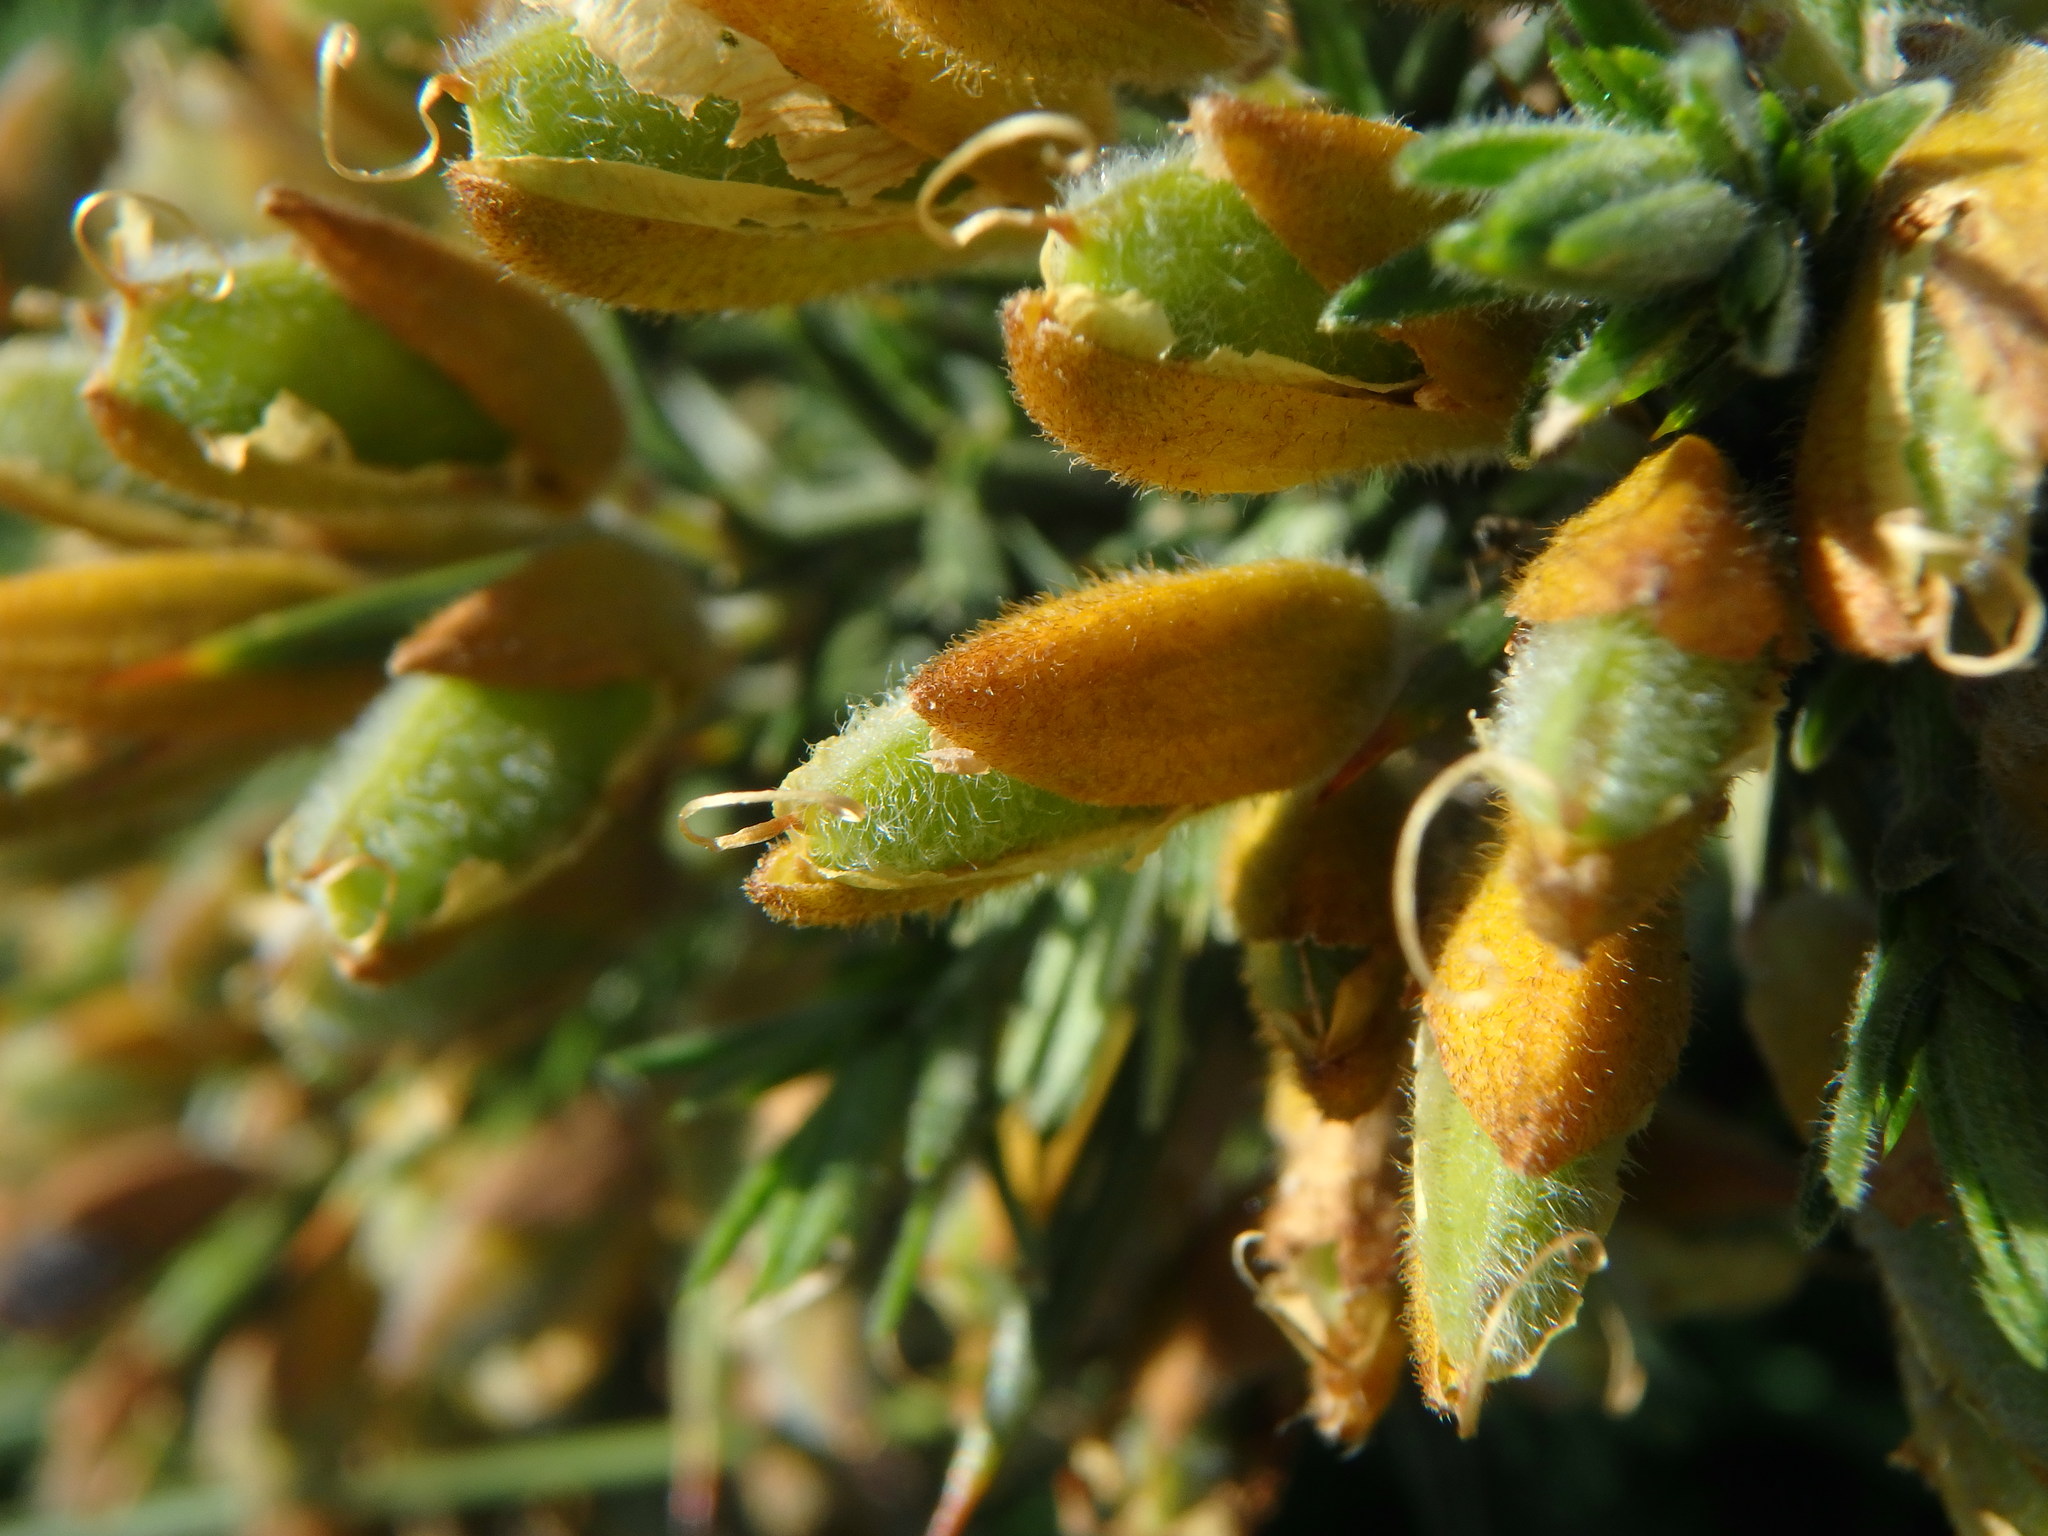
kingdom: Plantae
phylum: Tracheophyta
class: Magnoliopsida
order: Fabales
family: Fabaceae
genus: Ulex
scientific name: Ulex europaeus
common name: Common gorse
